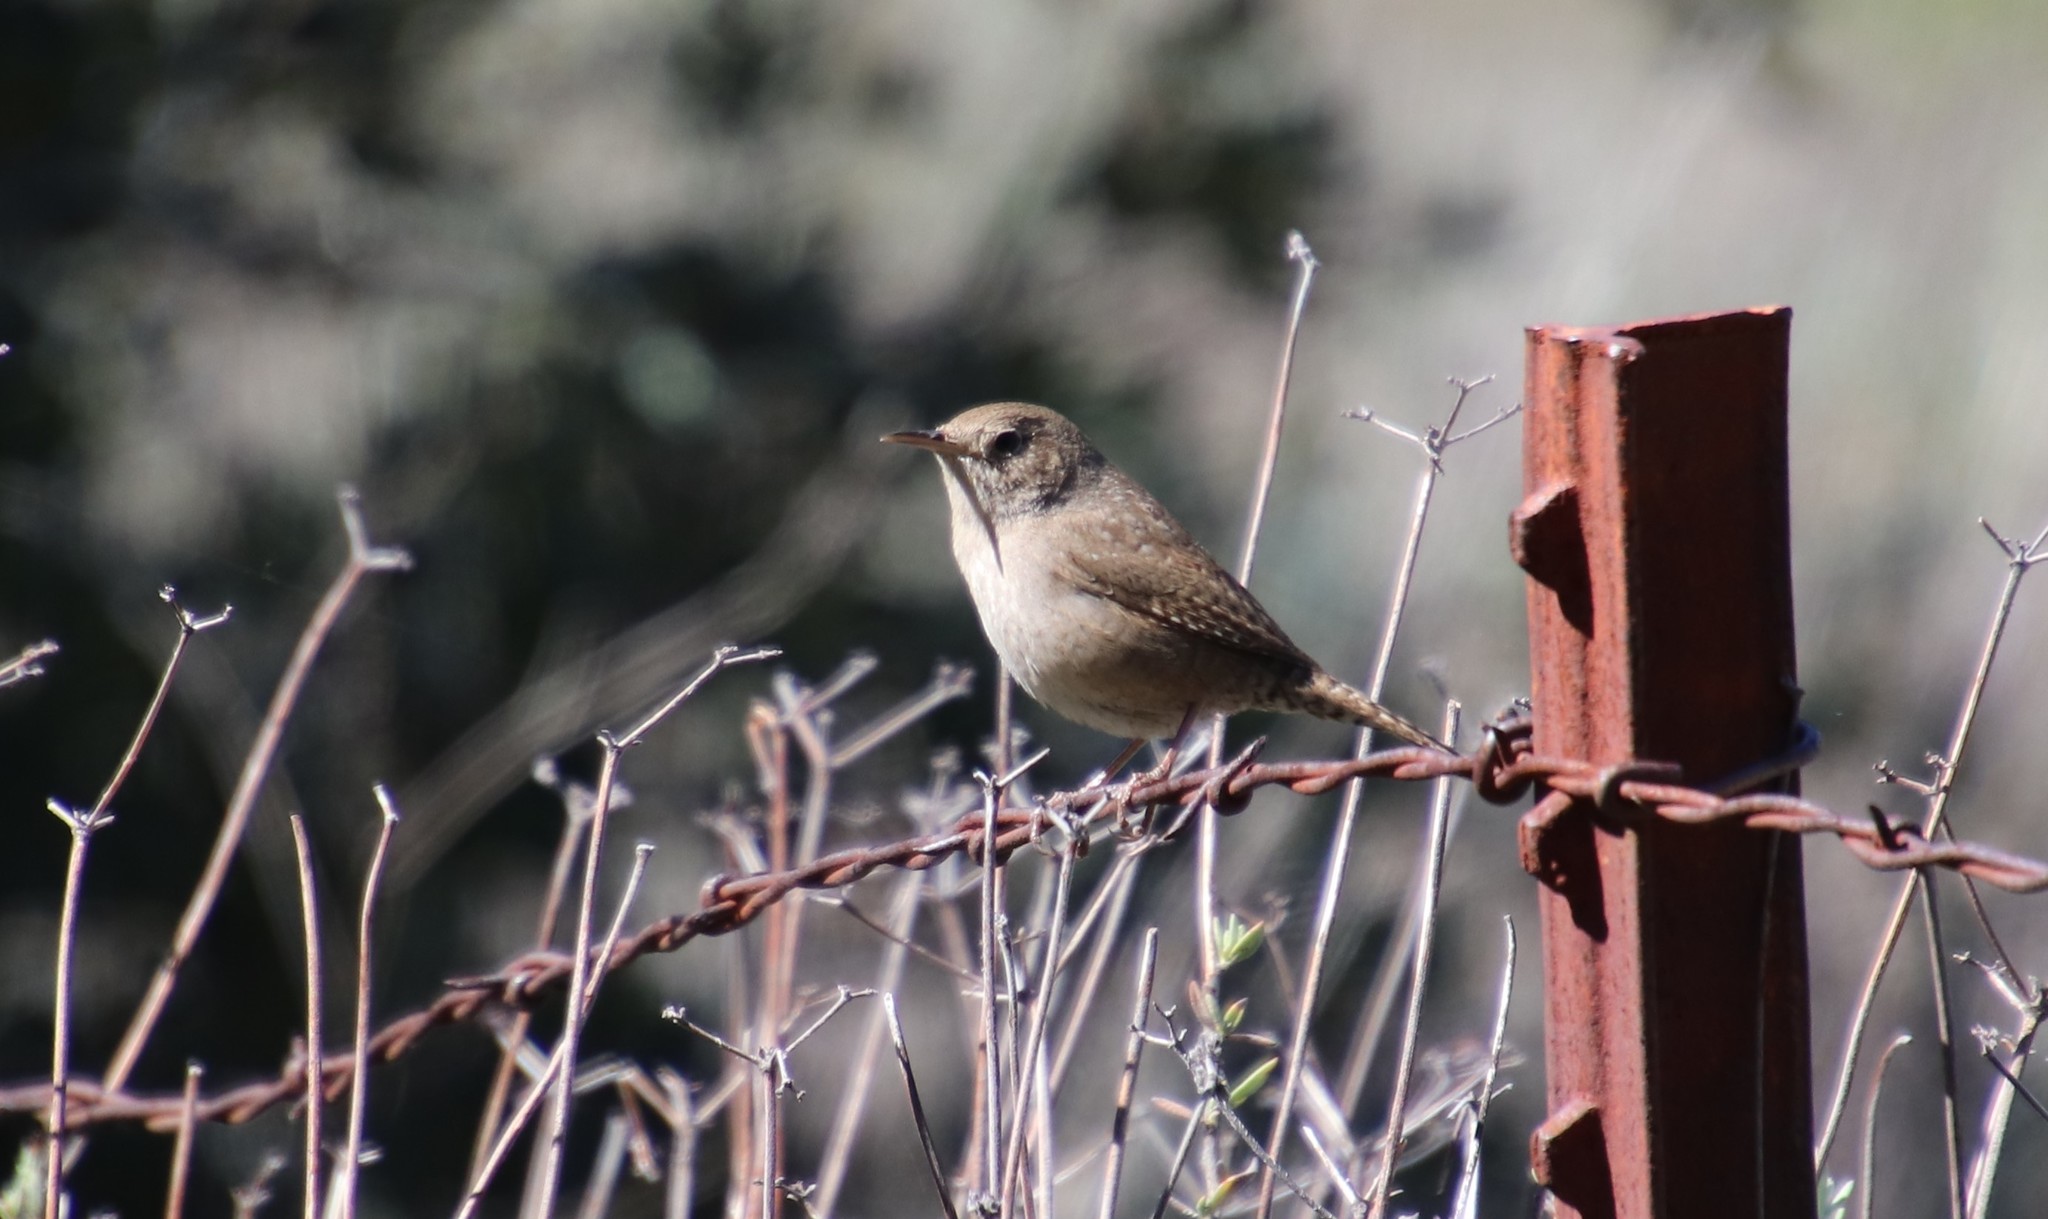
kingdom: Animalia
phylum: Chordata
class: Aves
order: Passeriformes
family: Troglodytidae
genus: Troglodytes
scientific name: Troglodytes aedon
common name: House wren
